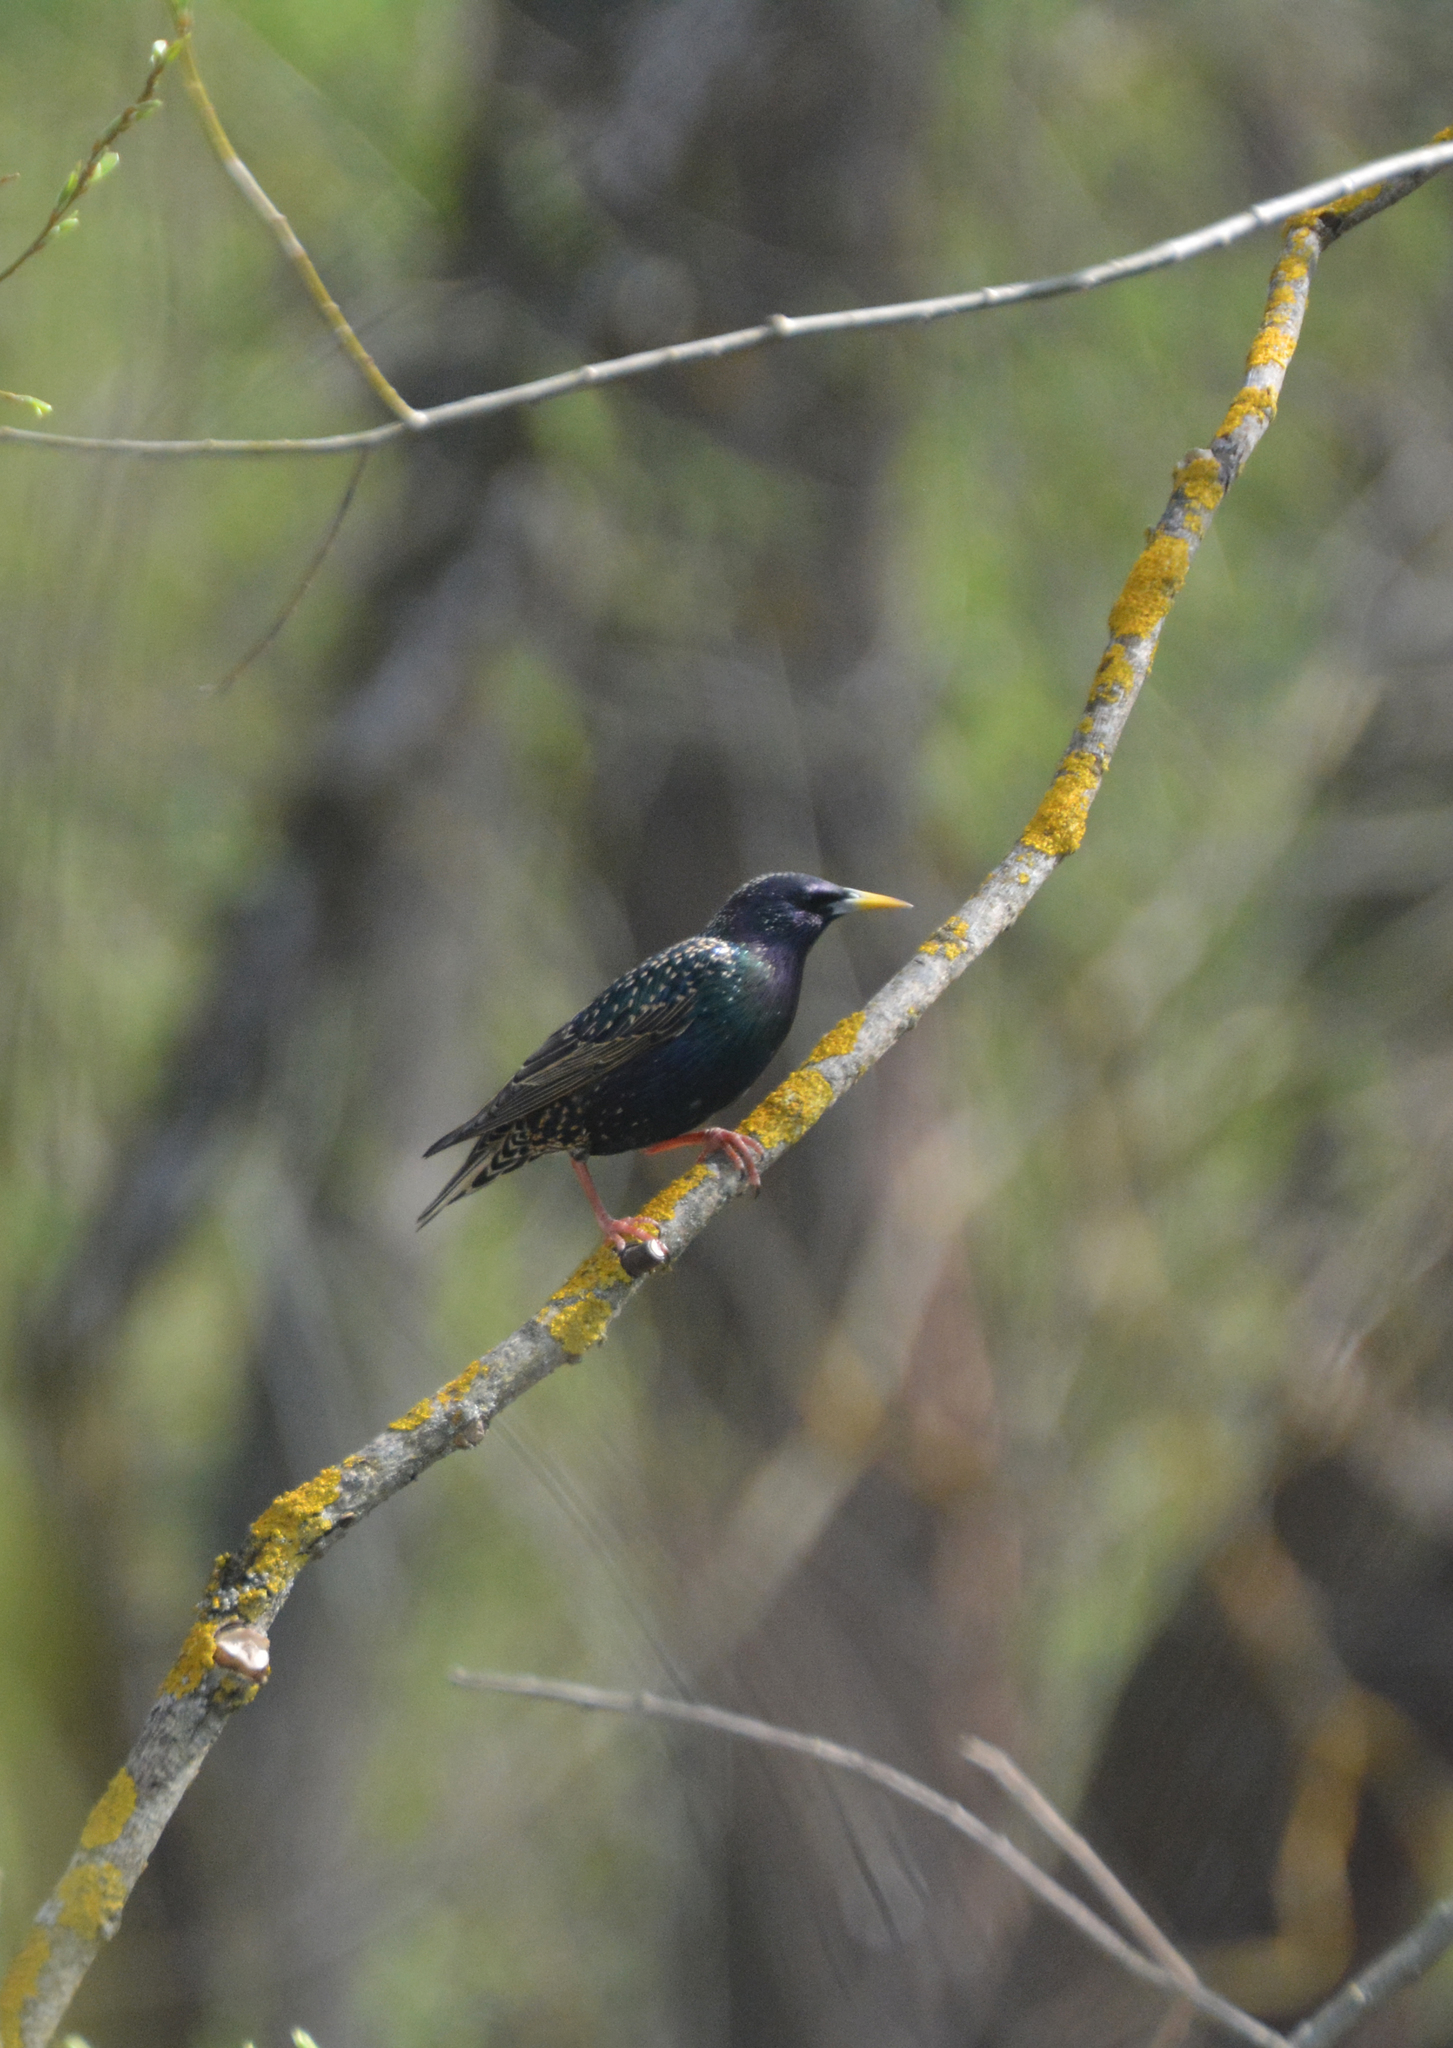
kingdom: Animalia
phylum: Chordata
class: Aves
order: Passeriformes
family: Sturnidae
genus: Sturnus
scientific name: Sturnus vulgaris
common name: Common starling
